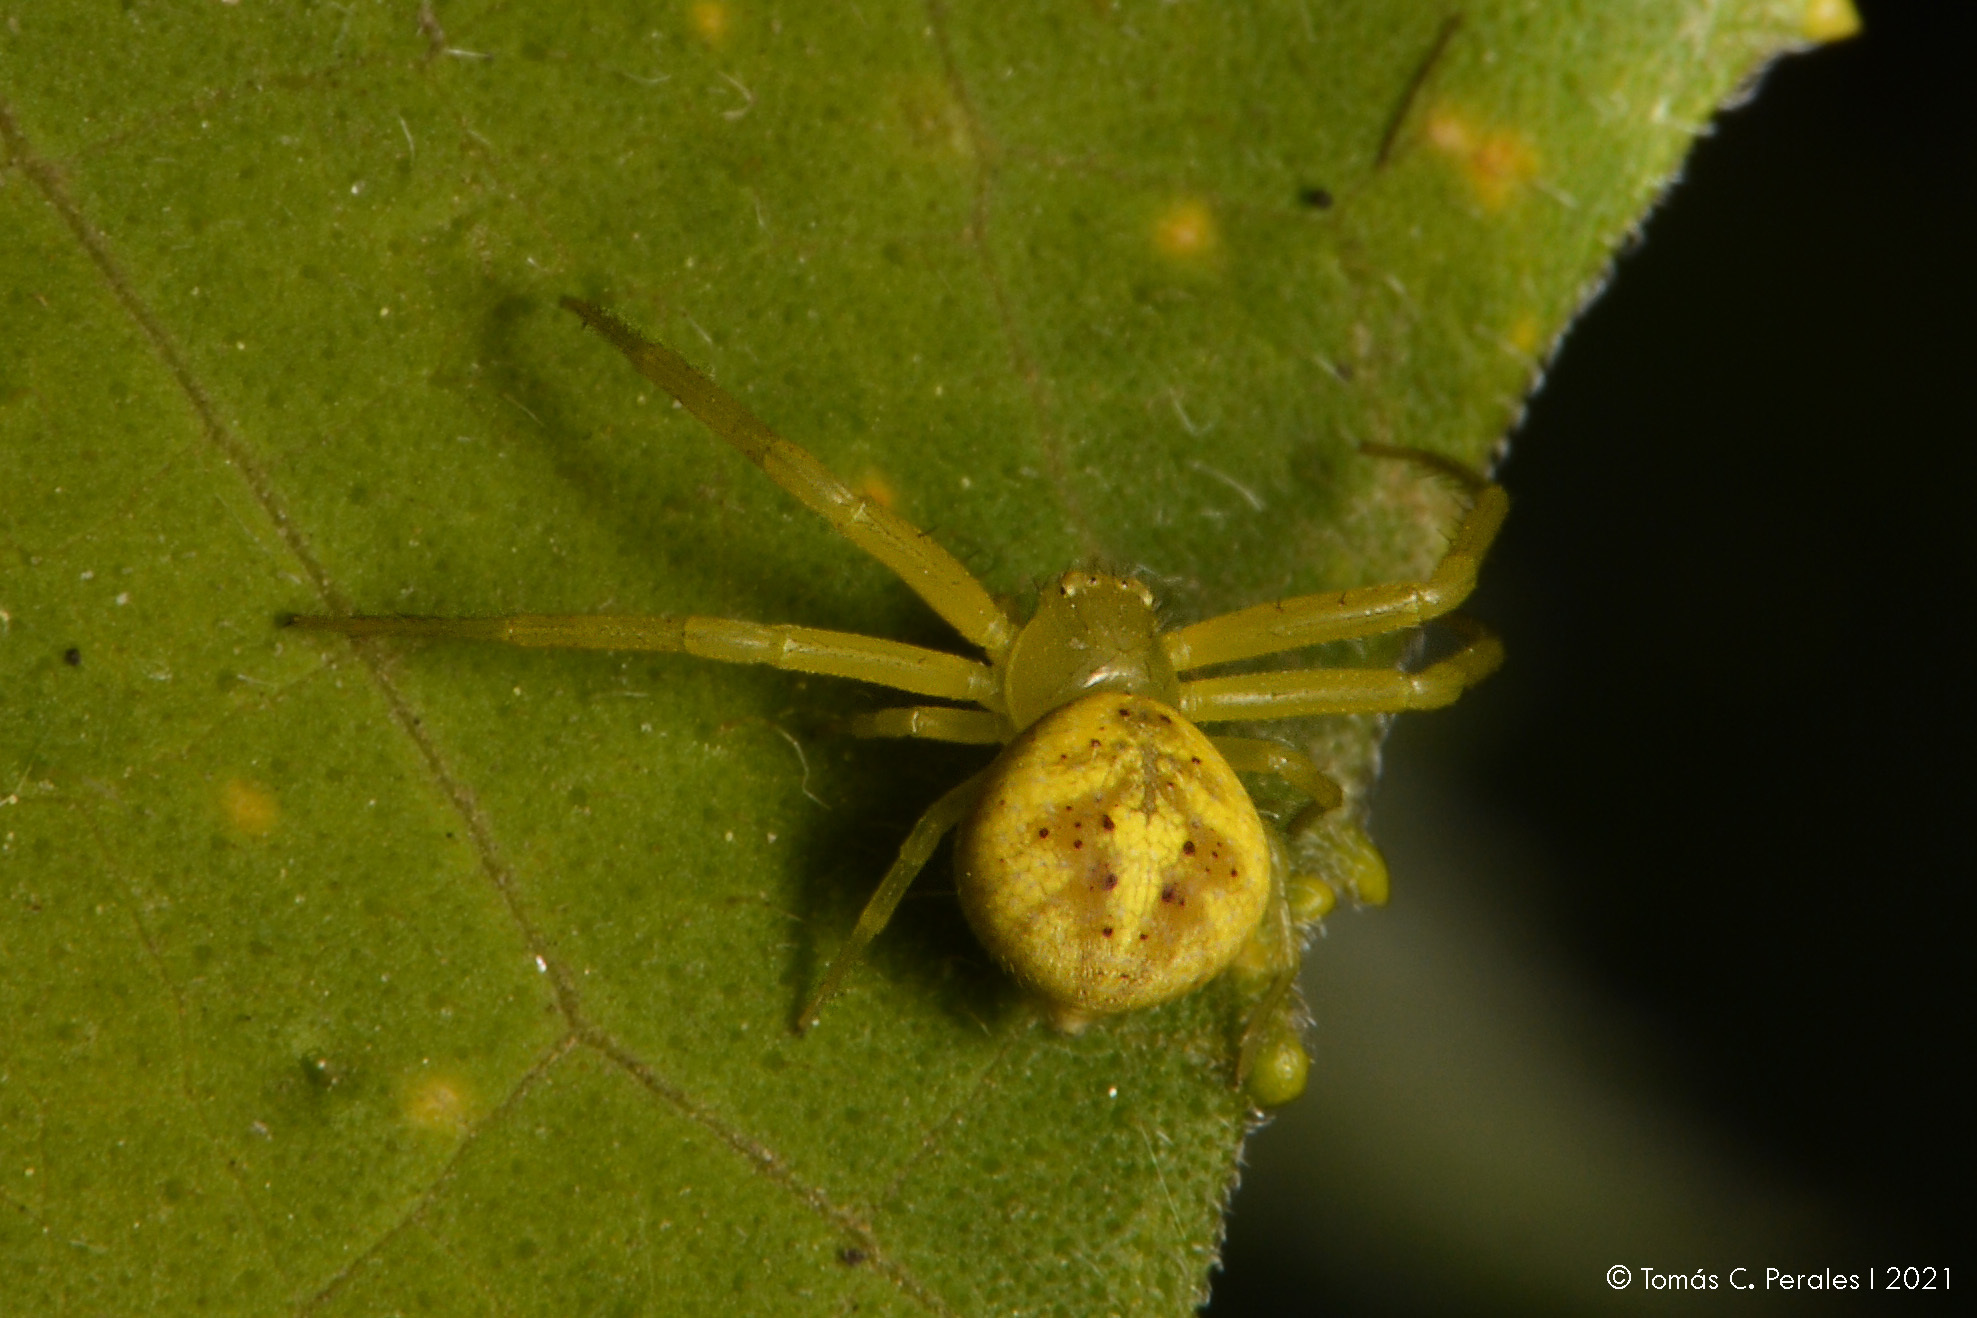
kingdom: Animalia
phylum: Arthropoda
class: Arachnida
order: Araneae
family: Thomisidae
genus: Misumenops
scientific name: Misumenops
